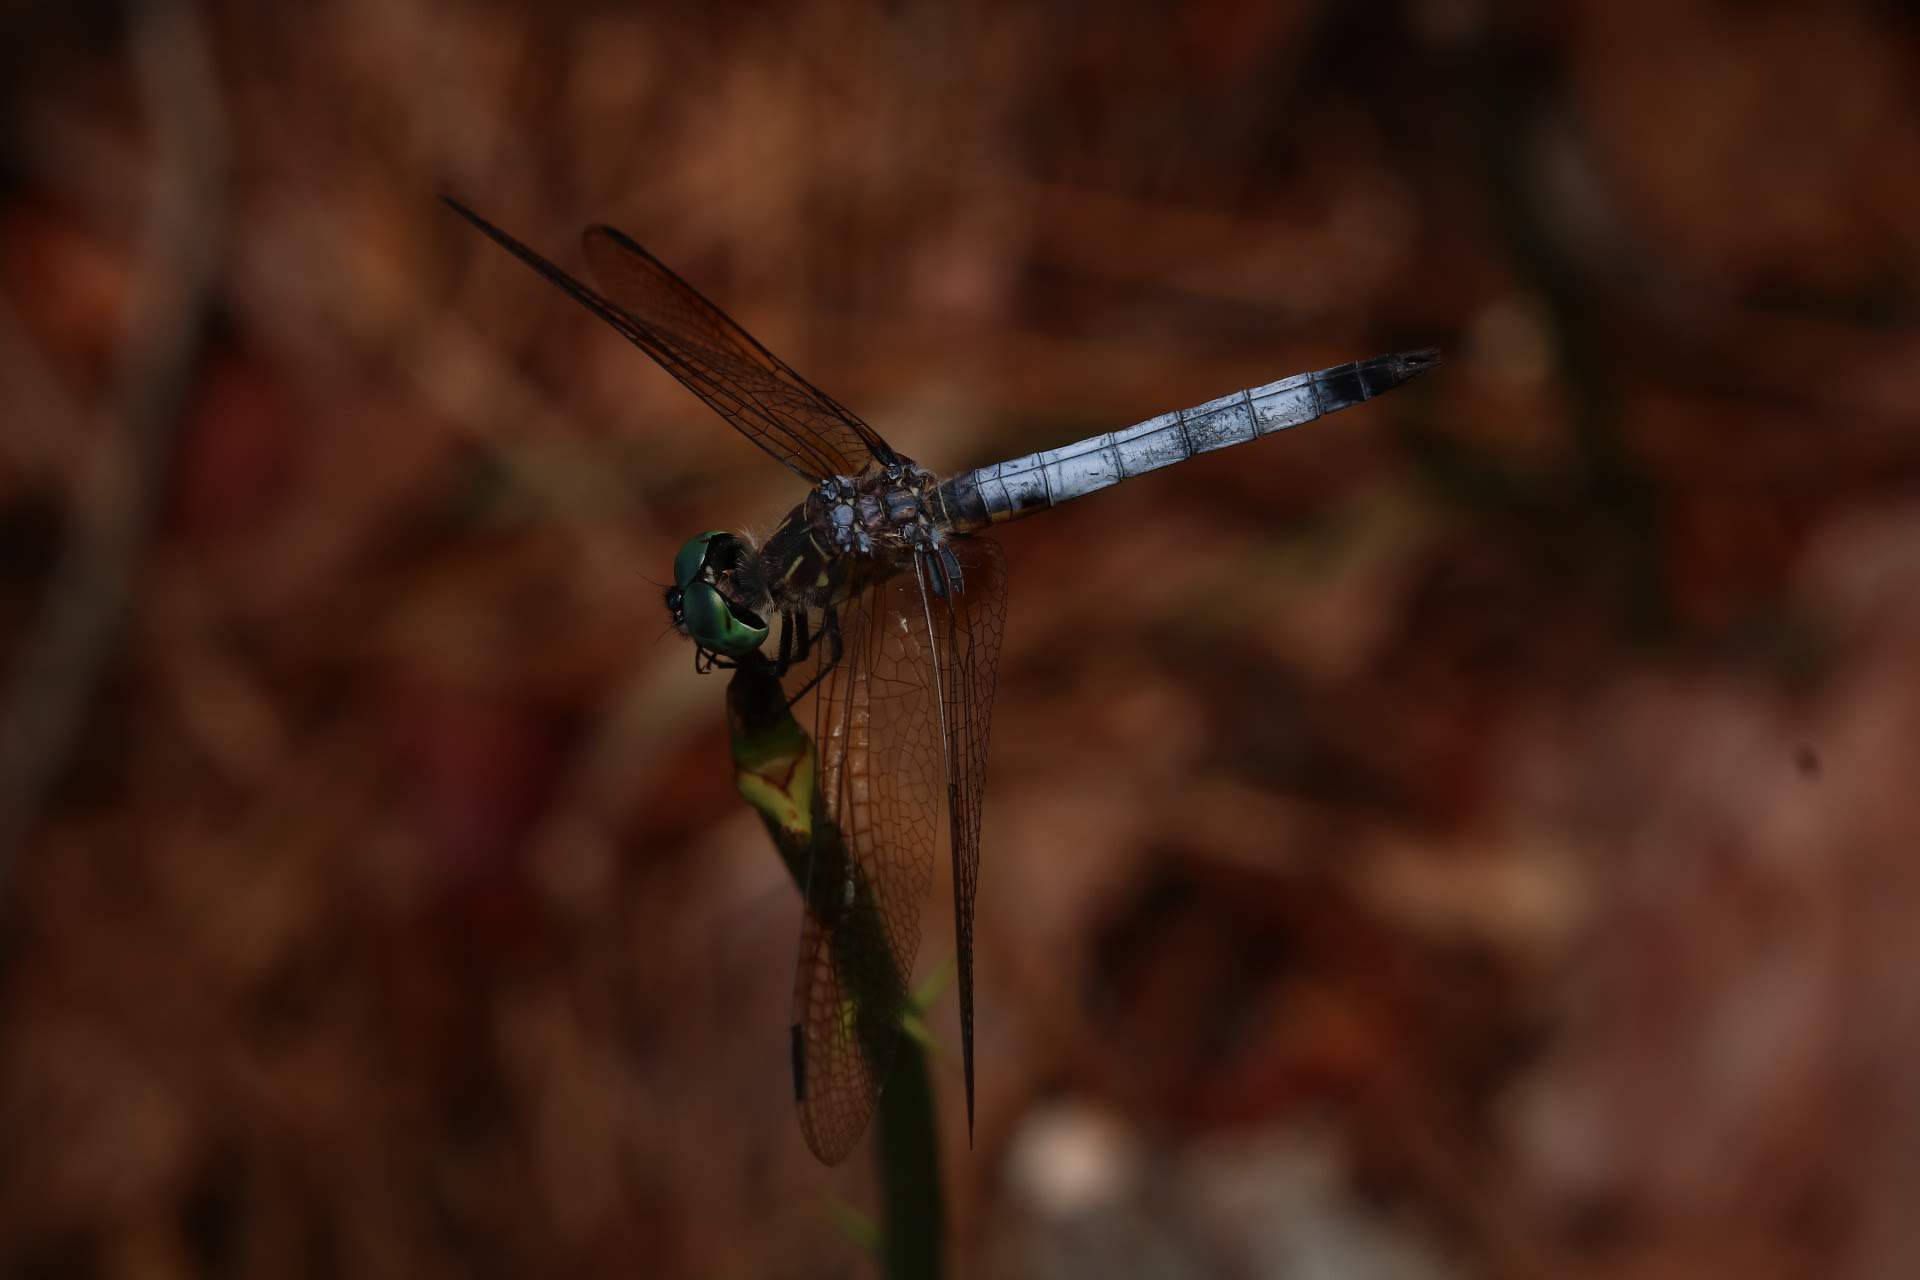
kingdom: Animalia
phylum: Arthropoda
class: Insecta
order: Odonata
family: Libellulidae
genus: Pachydiplax
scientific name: Pachydiplax longipennis
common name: Blue dasher
